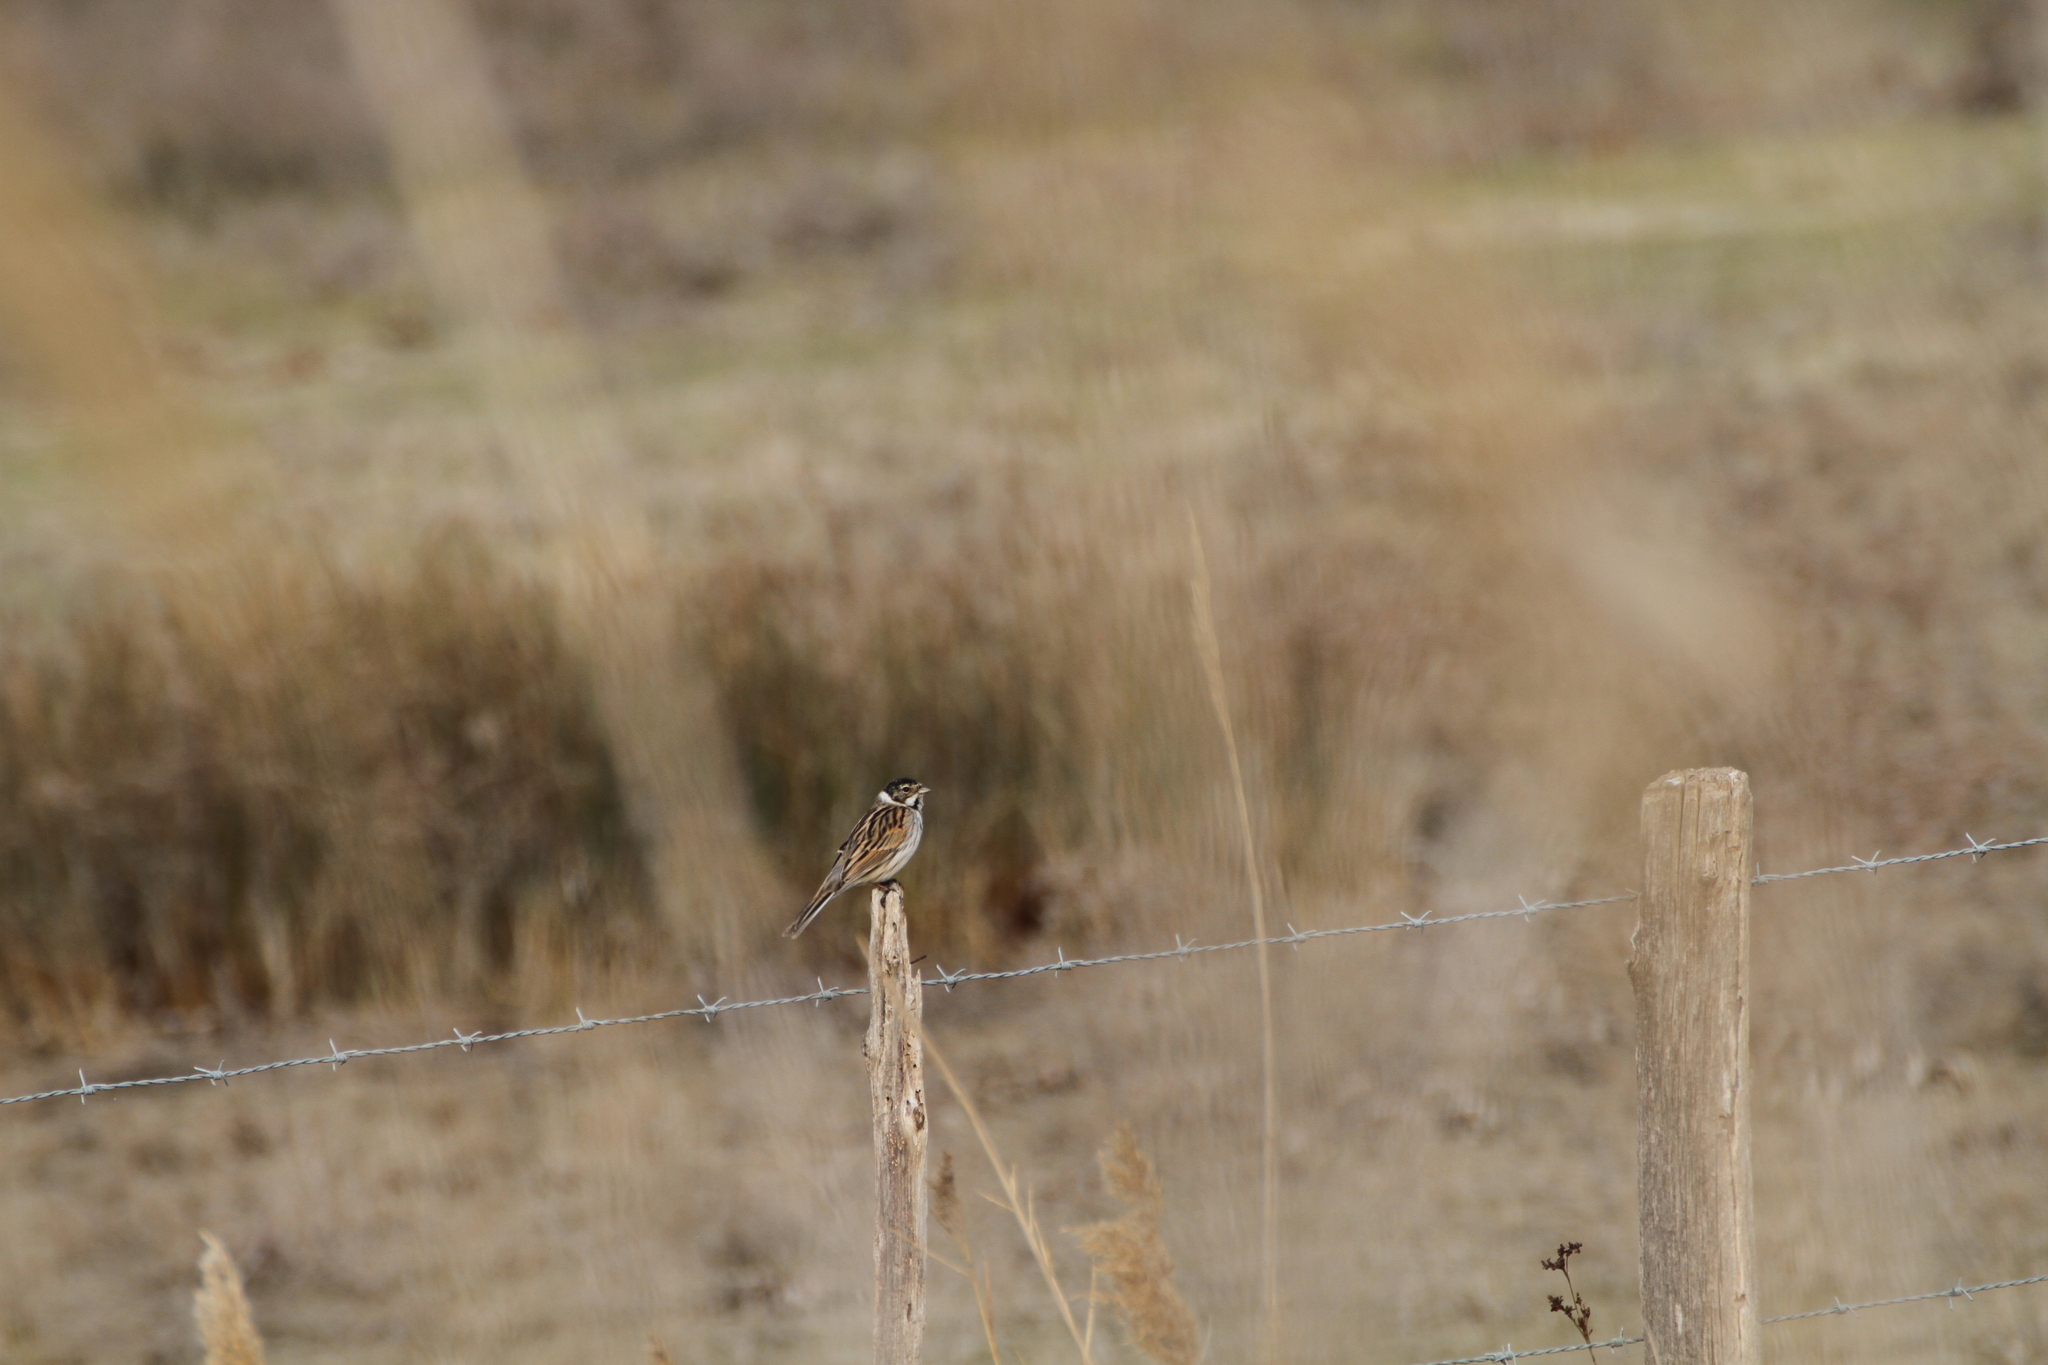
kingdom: Animalia
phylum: Chordata
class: Aves
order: Passeriformes
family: Emberizidae
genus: Emberiza
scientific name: Emberiza schoeniclus
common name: Reed bunting
